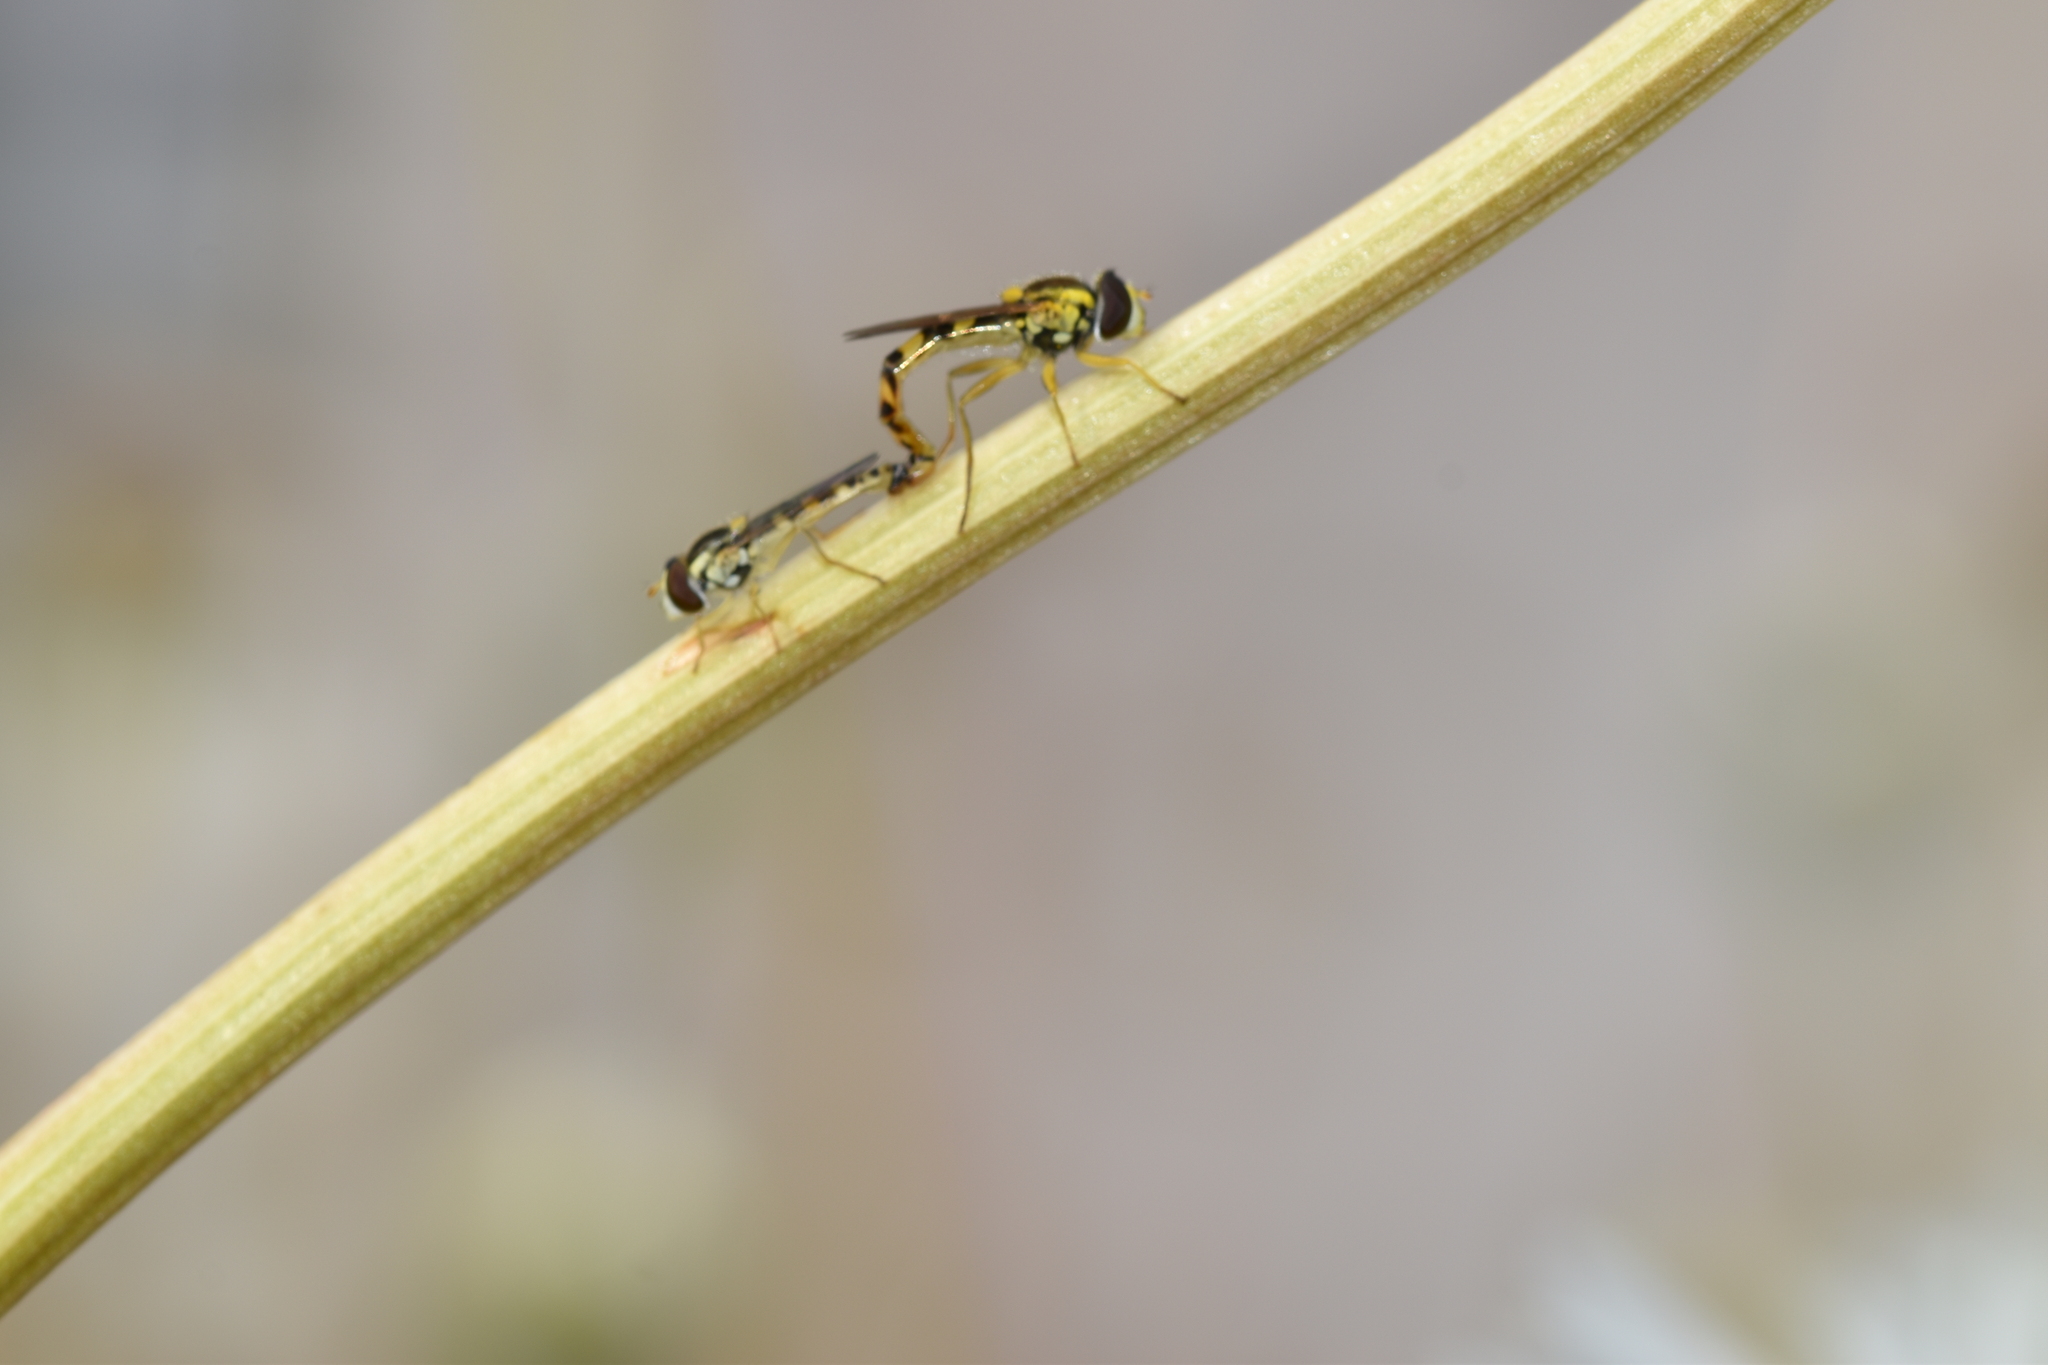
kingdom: Animalia
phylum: Arthropoda
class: Insecta
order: Diptera
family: Syrphidae
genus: Sphaerophoria
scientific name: Sphaerophoria scripta
